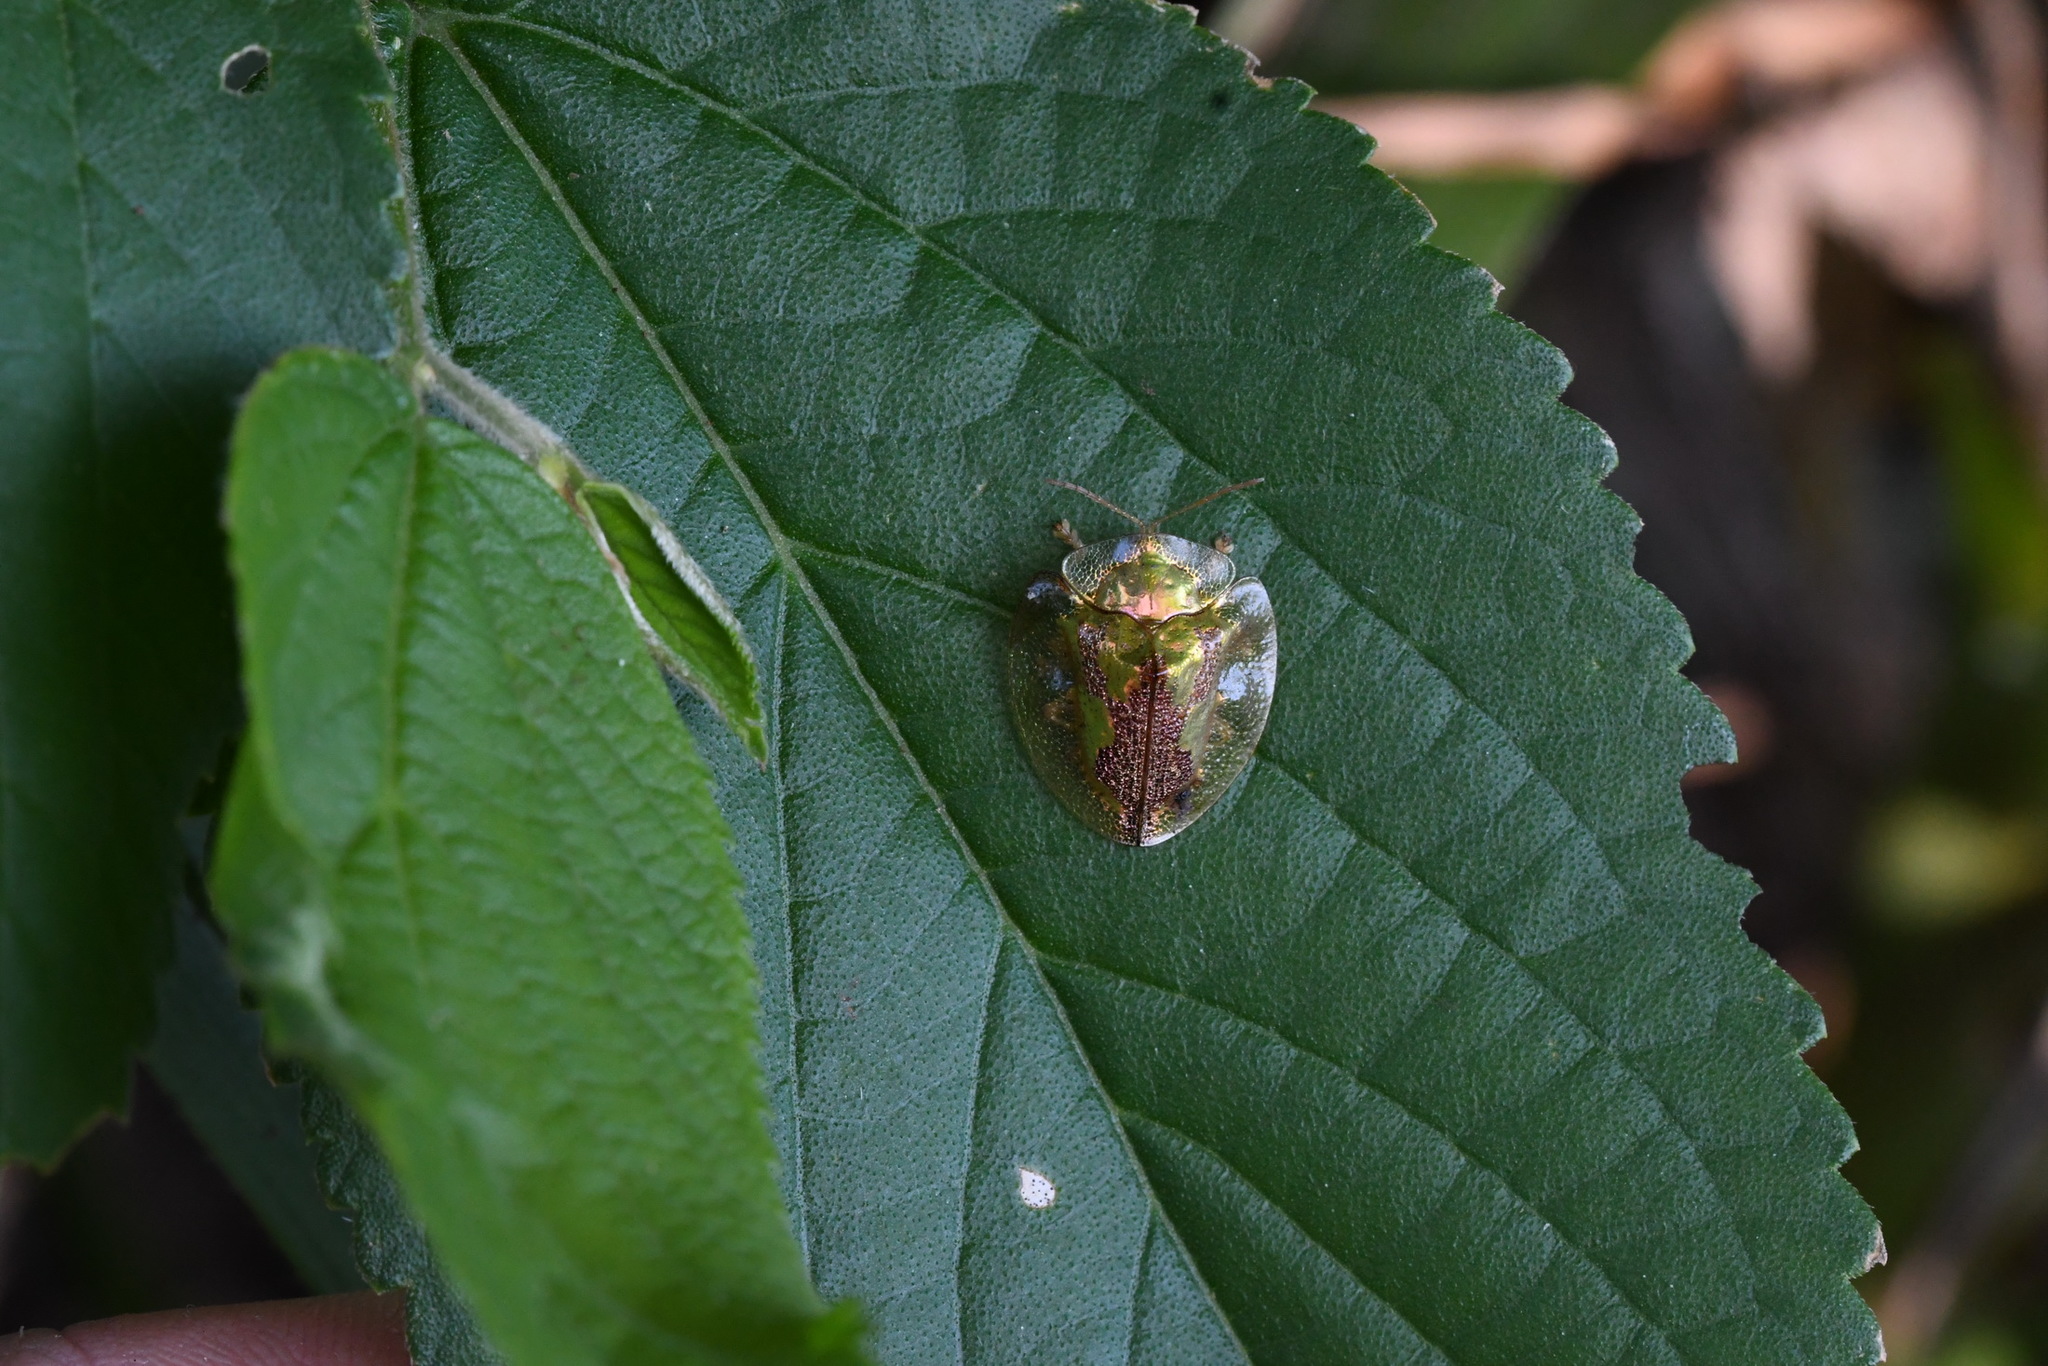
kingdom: Animalia
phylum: Arthropoda
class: Insecta
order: Coleoptera
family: Chrysomelidae
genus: Coptocycla
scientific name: Coptocycla contemta
